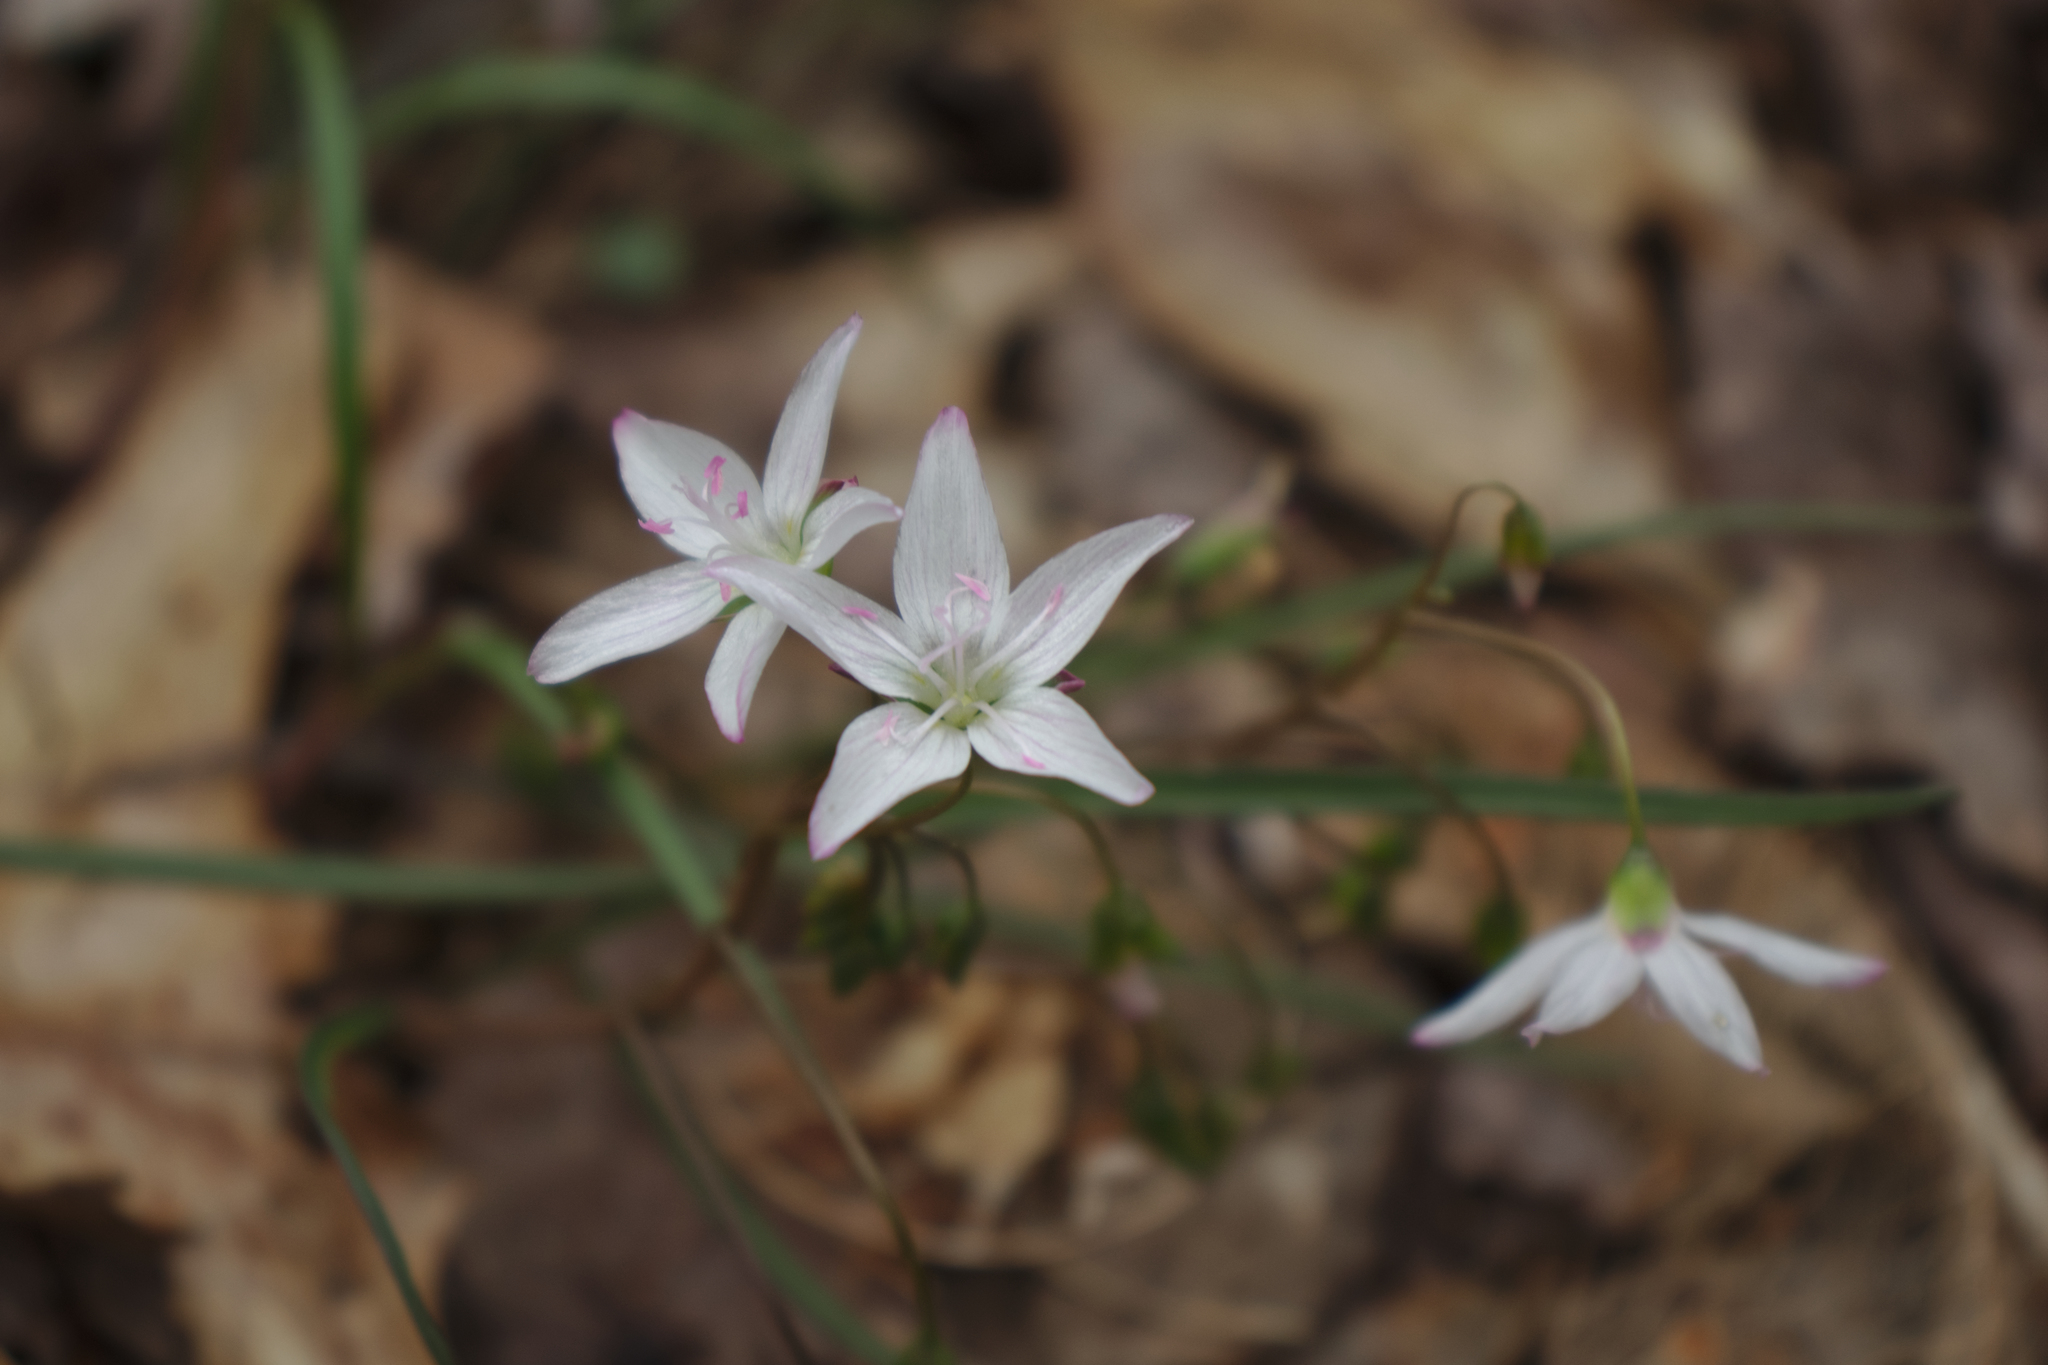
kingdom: Plantae
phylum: Tracheophyta
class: Magnoliopsida
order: Caryophyllales
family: Montiaceae
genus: Claytonia
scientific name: Claytonia virginica
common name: Virginia springbeauty
